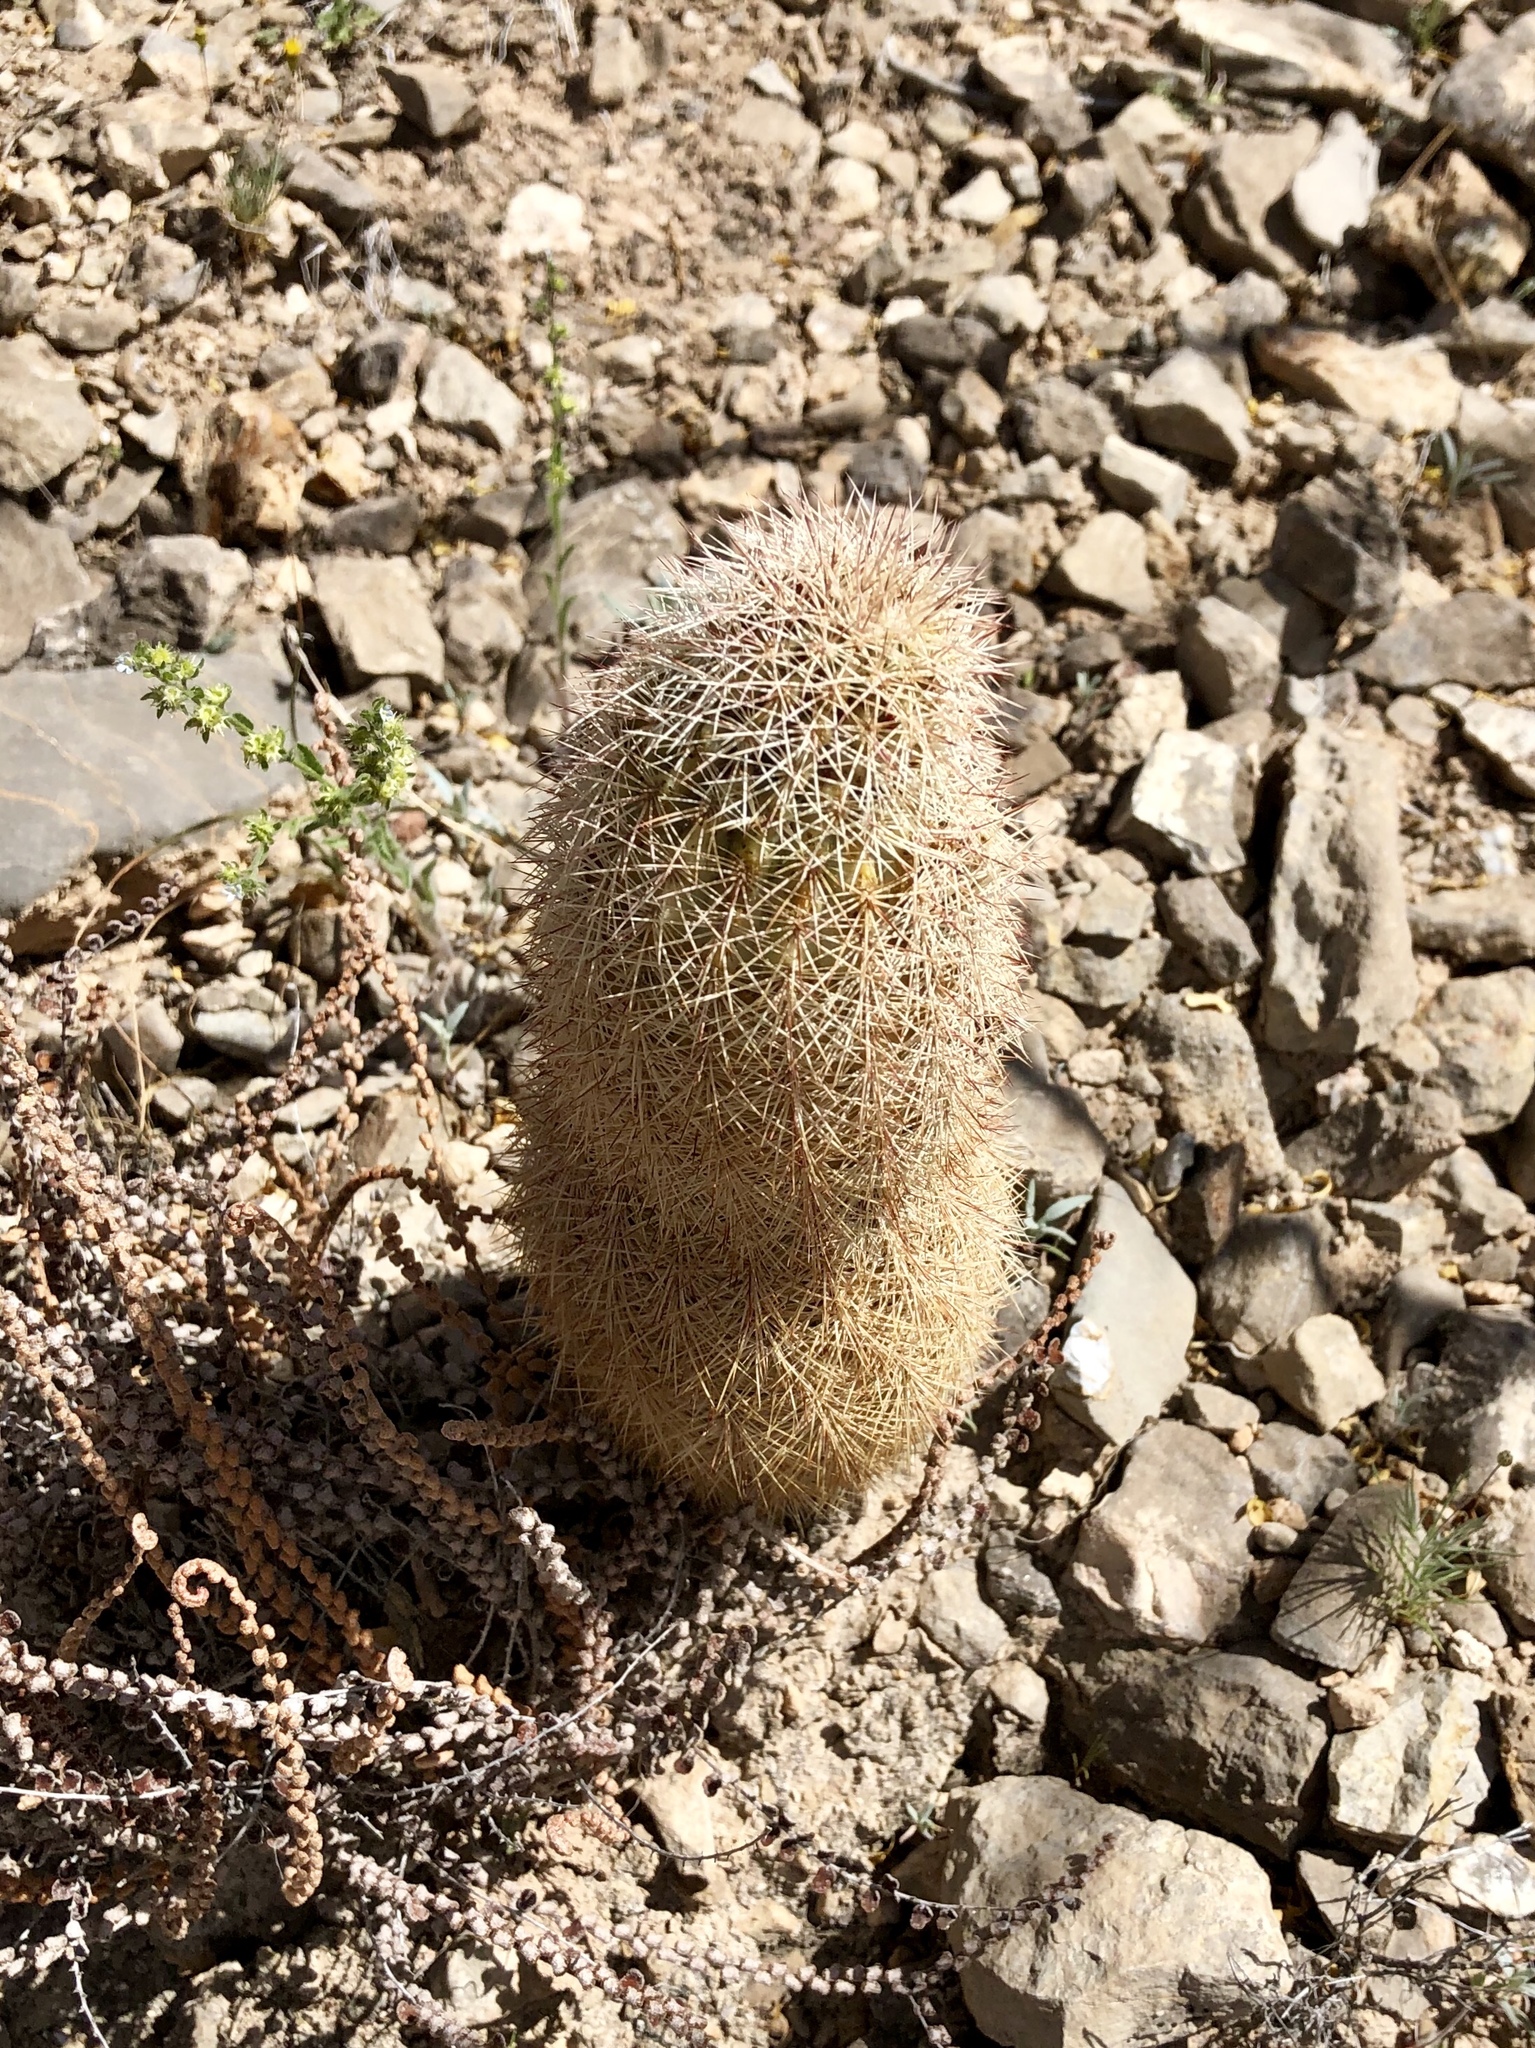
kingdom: Plantae
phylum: Tracheophyta
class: Magnoliopsida
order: Caryophyllales
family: Cactaceae
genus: Echinocereus
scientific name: Echinocereus dasyacanthus
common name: Spiny hedgehog cactus
